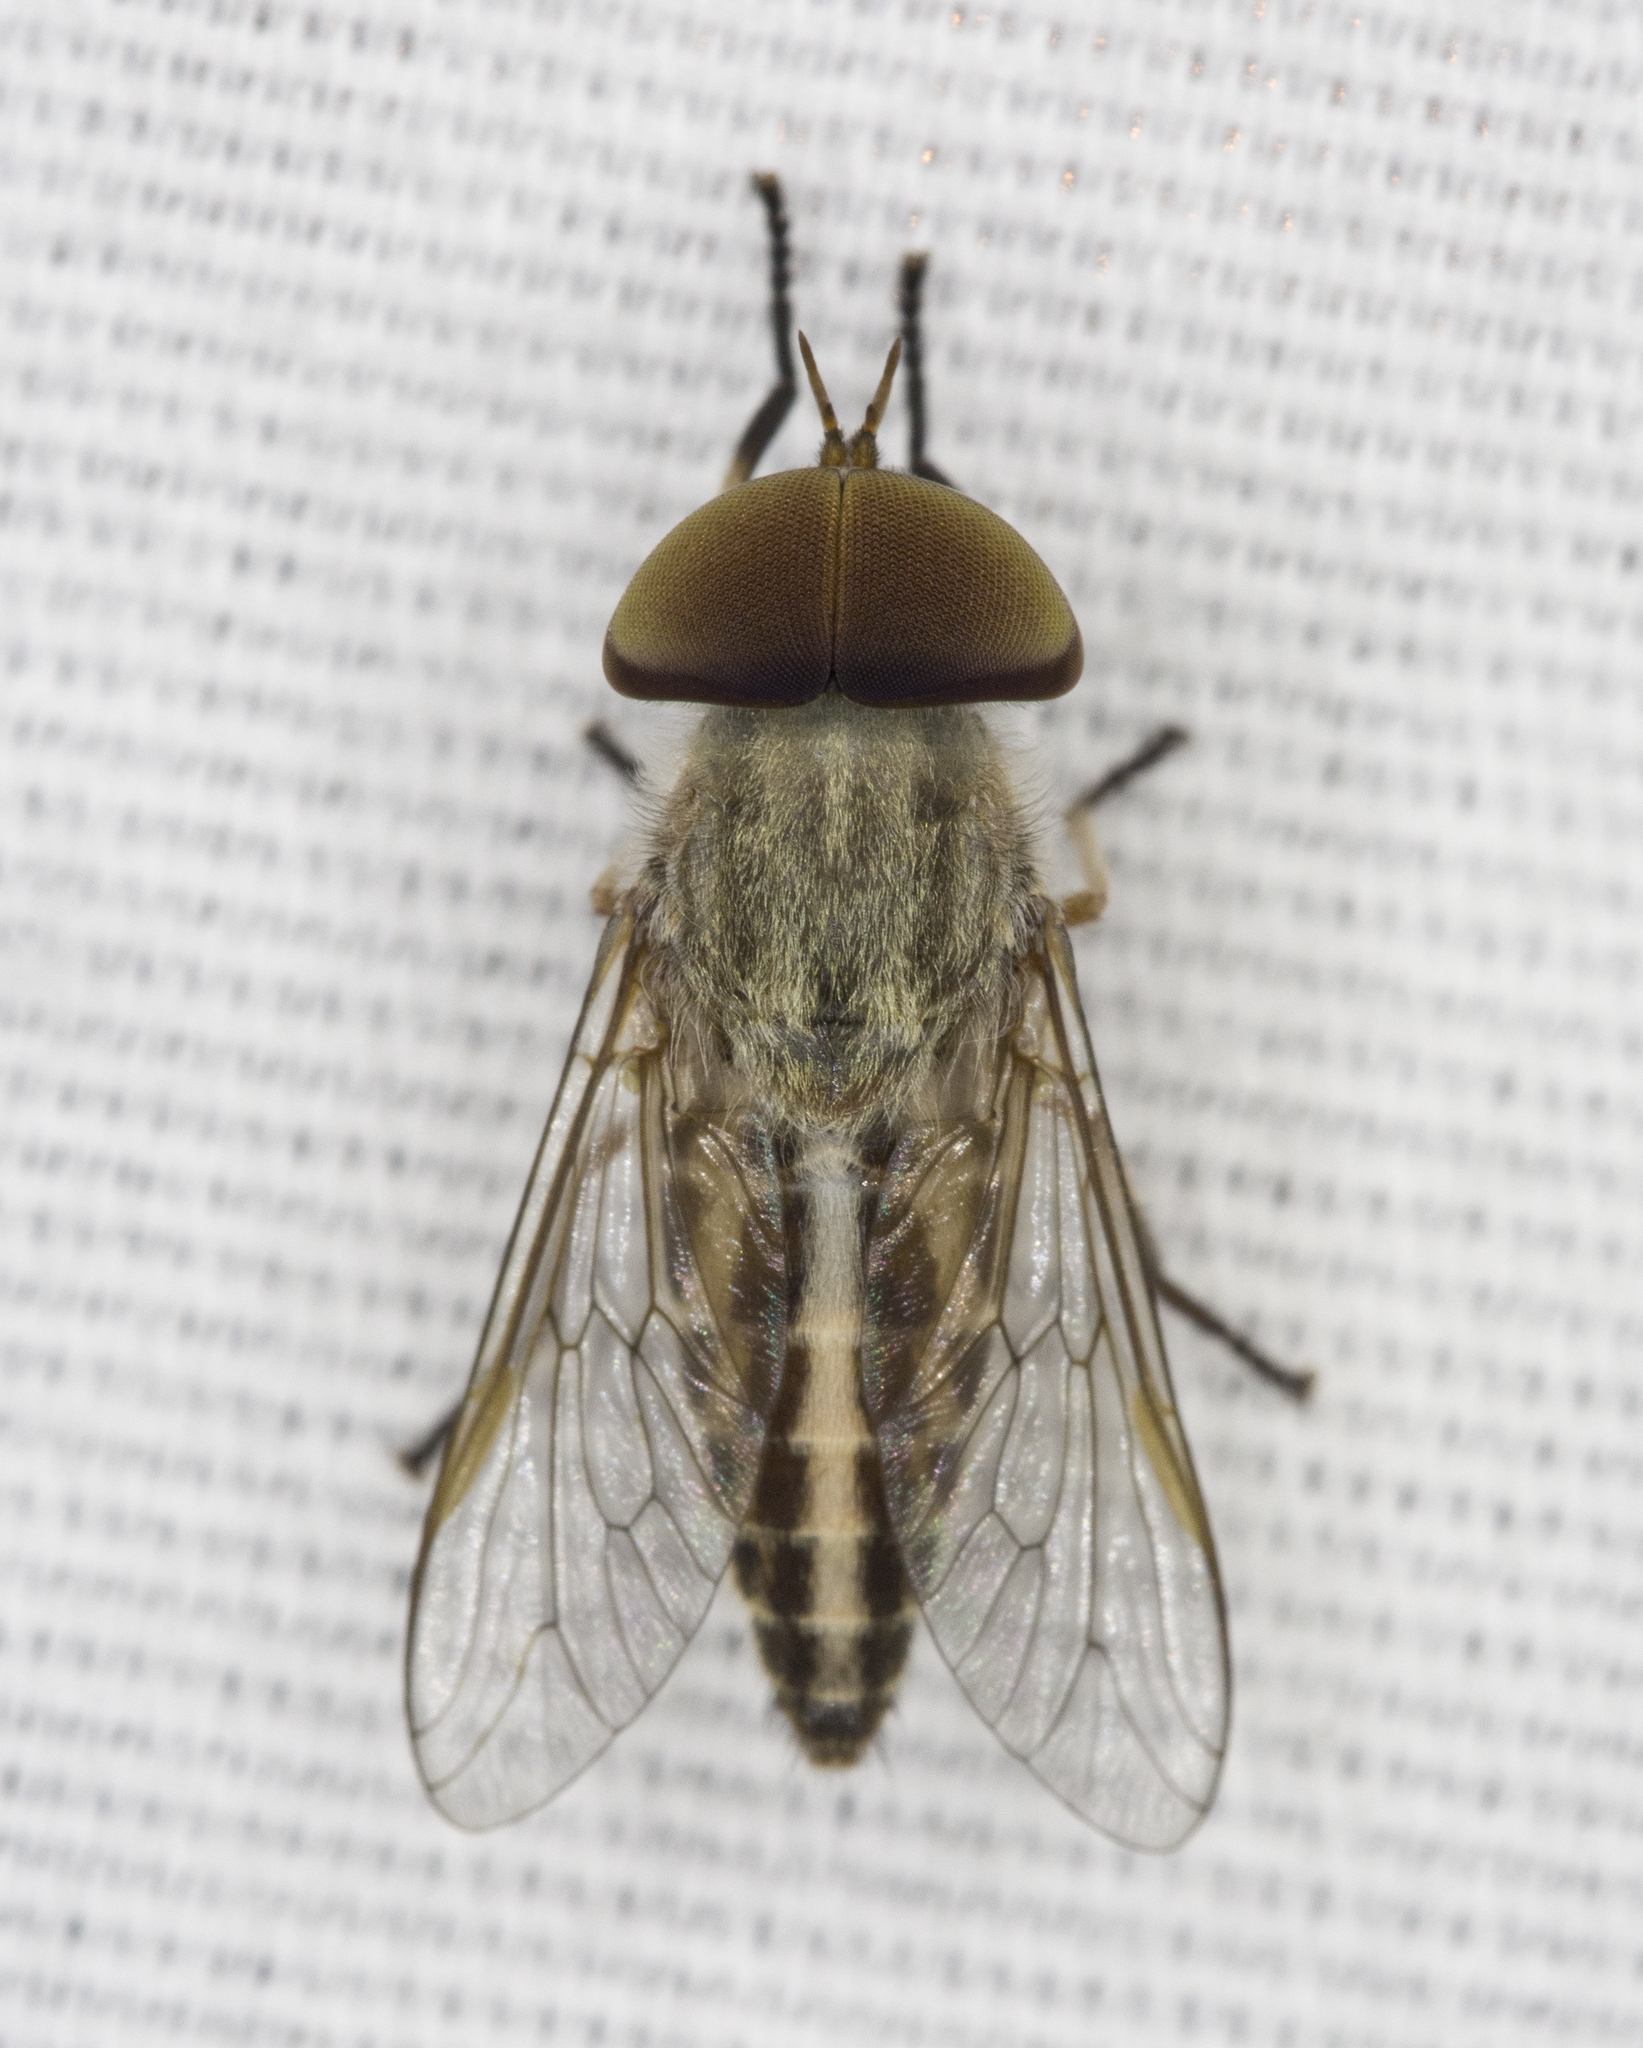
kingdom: Animalia
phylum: Arthropoda
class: Insecta
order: Diptera
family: Tabanidae
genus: Tabanus
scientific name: Tabanus lineola
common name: Striped horse fly
